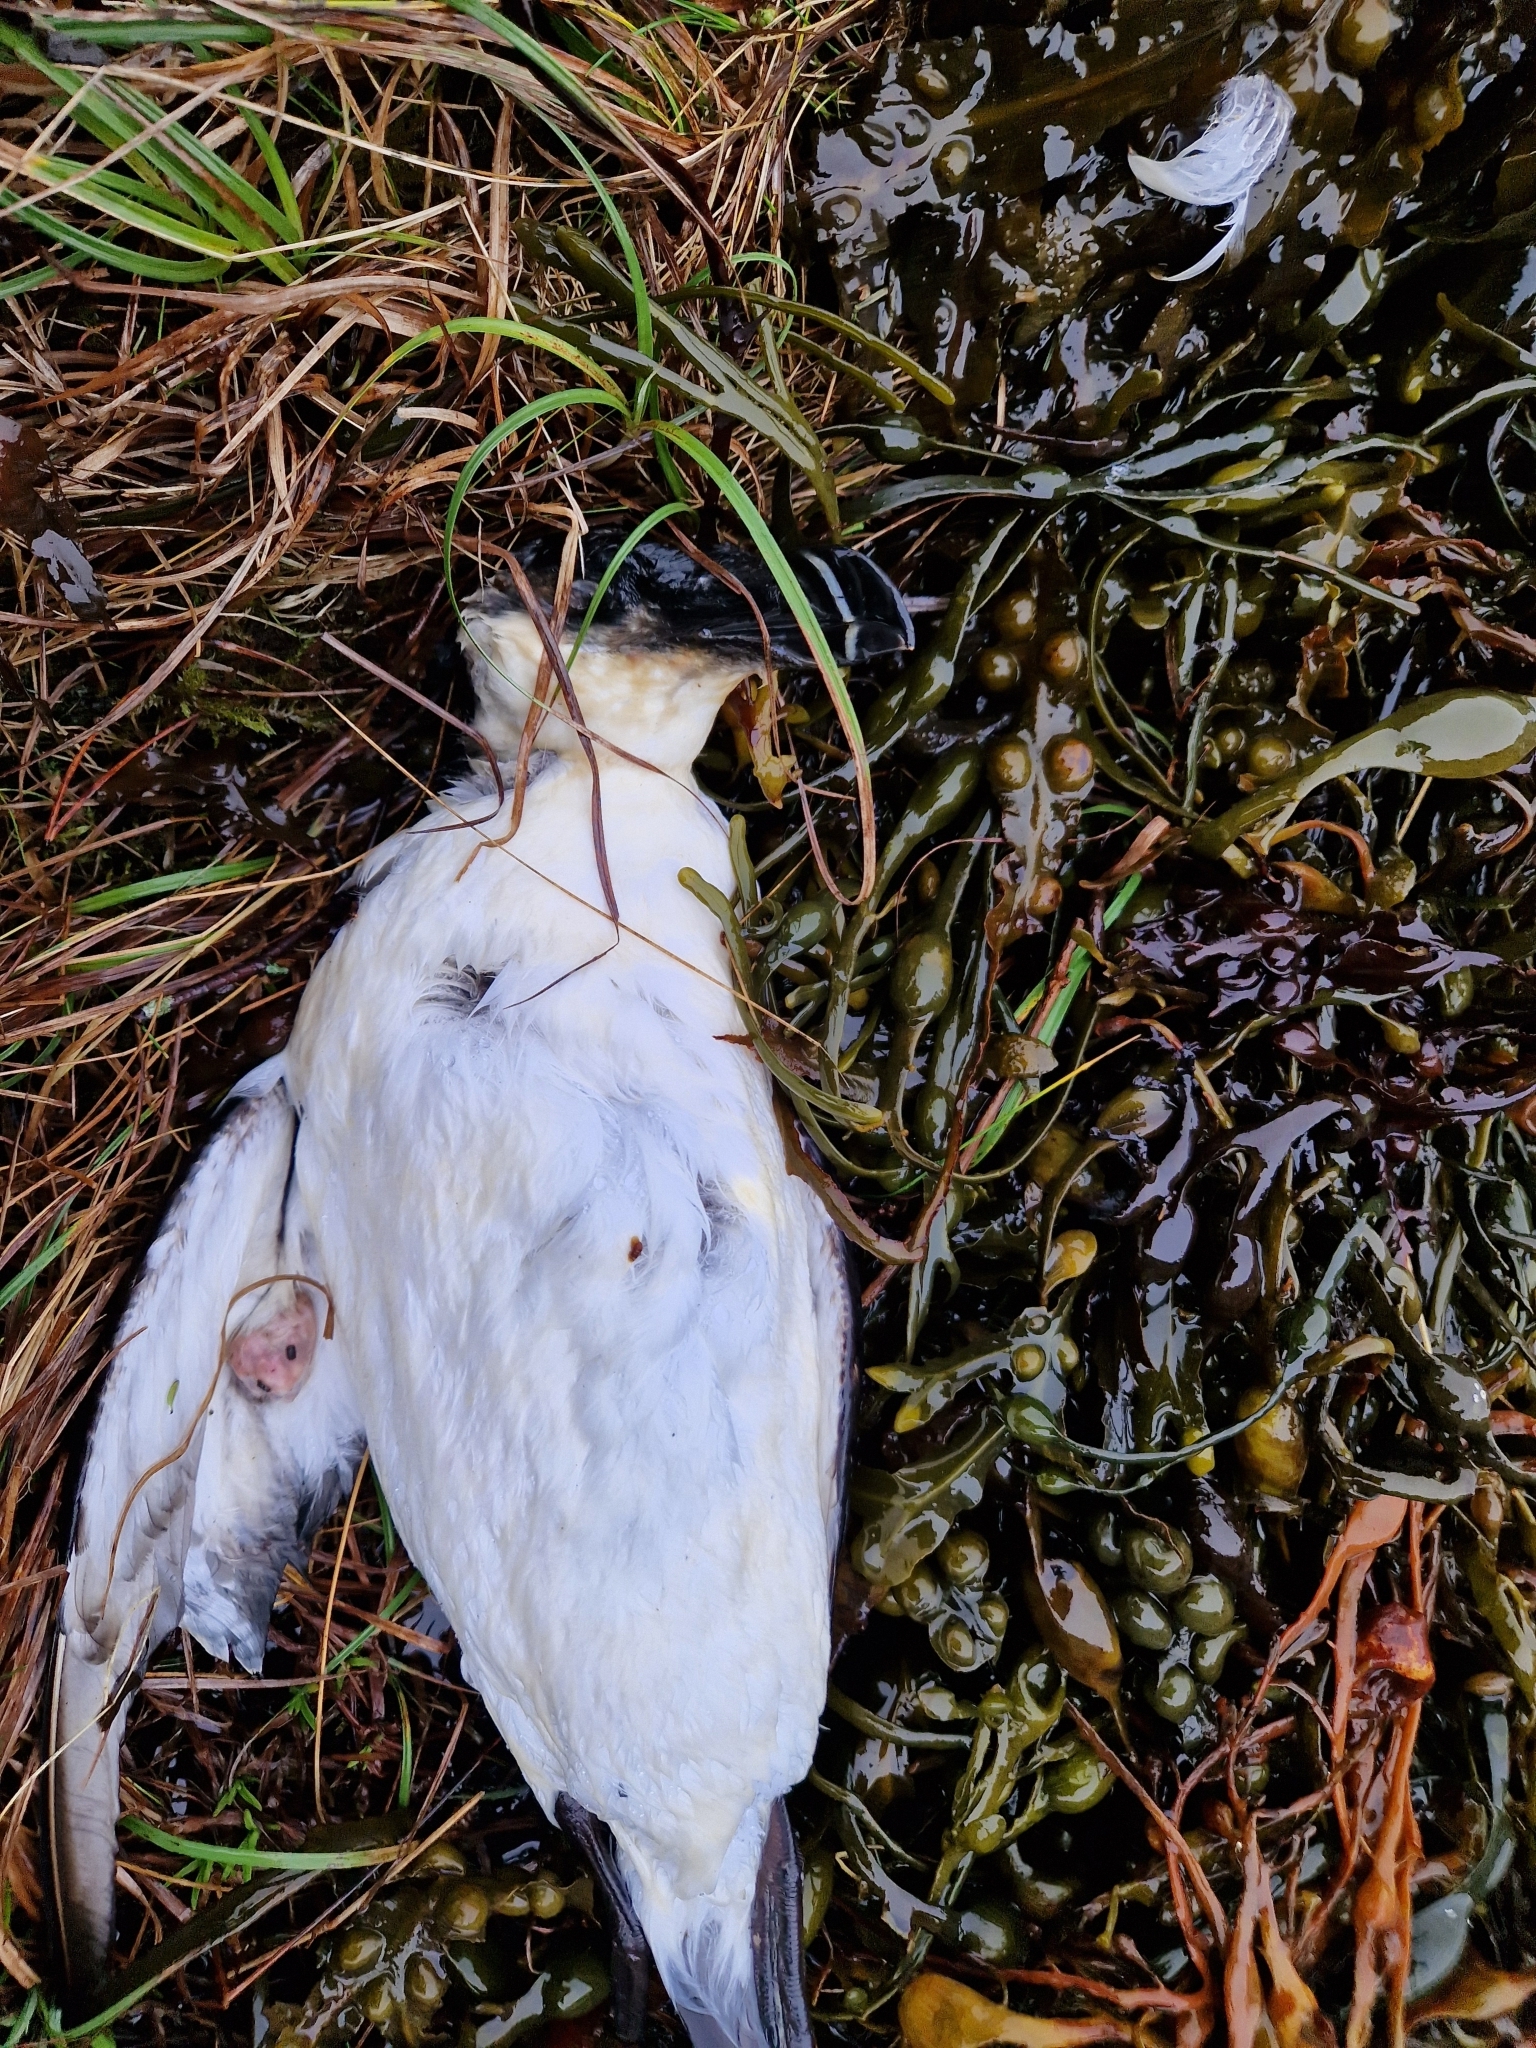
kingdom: Animalia
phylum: Chordata
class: Aves
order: Charadriiformes
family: Alcidae
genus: Alca
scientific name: Alca torda
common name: Razorbill
